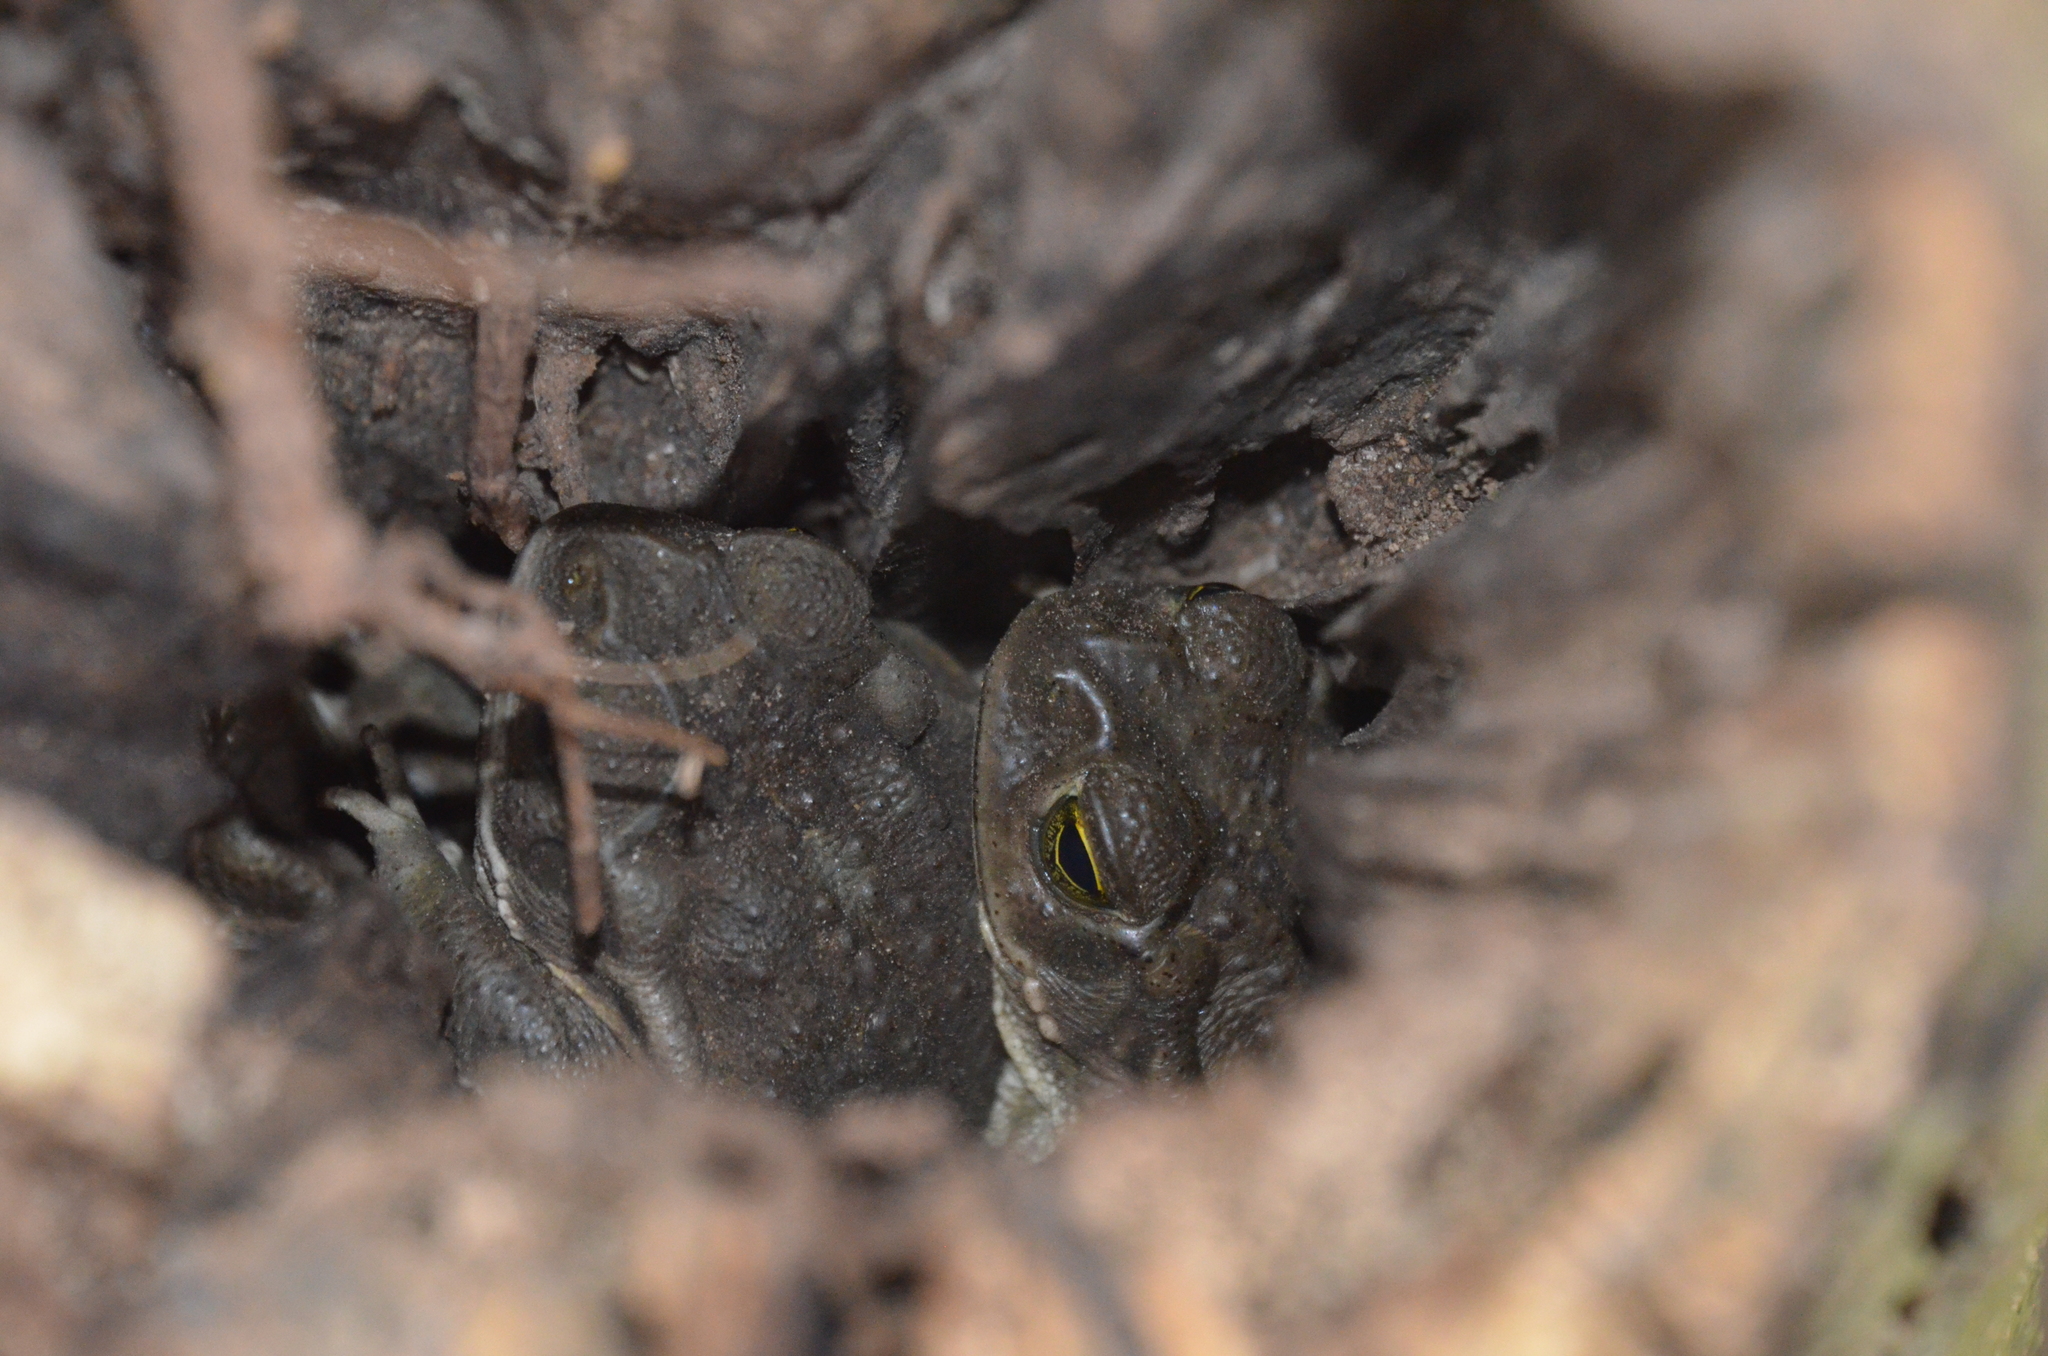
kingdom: Animalia
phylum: Chordata
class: Amphibia
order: Anura
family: Bufonidae
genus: Rhinella
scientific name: Rhinella arenarum
